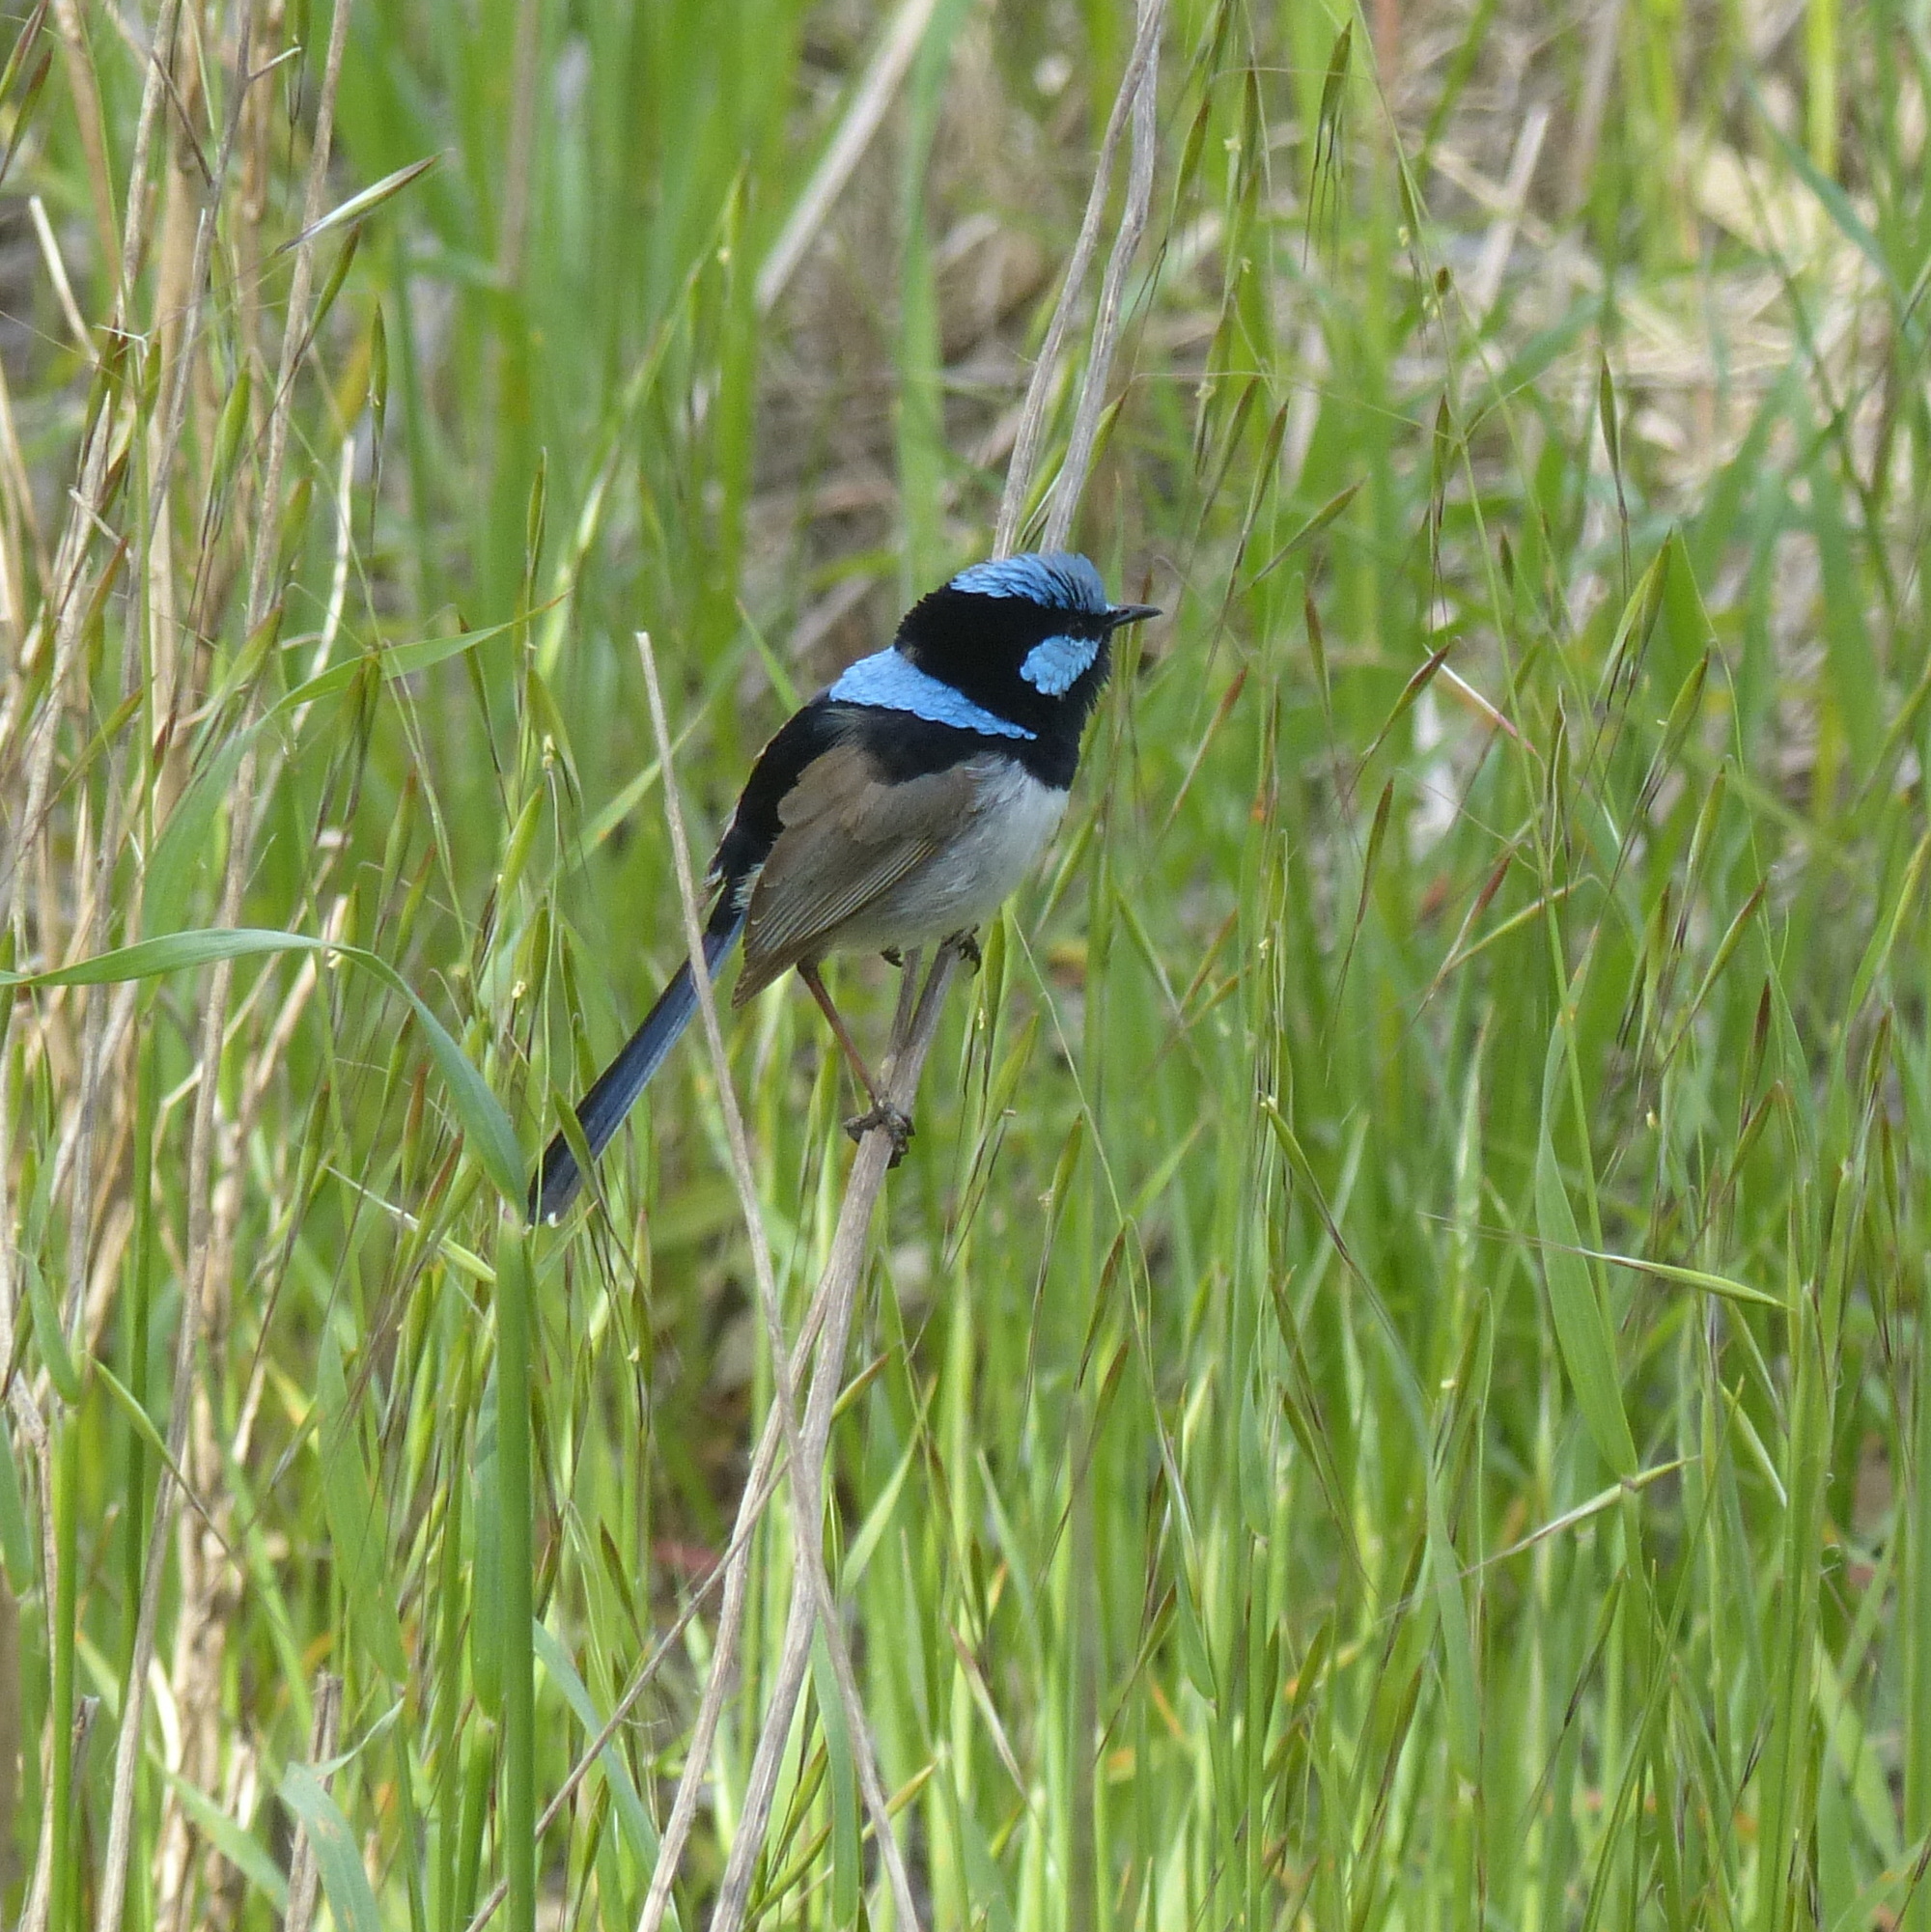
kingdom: Animalia
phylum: Chordata
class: Aves
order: Passeriformes
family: Maluridae
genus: Malurus
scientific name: Malurus cyaneus
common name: Superb fairywren
